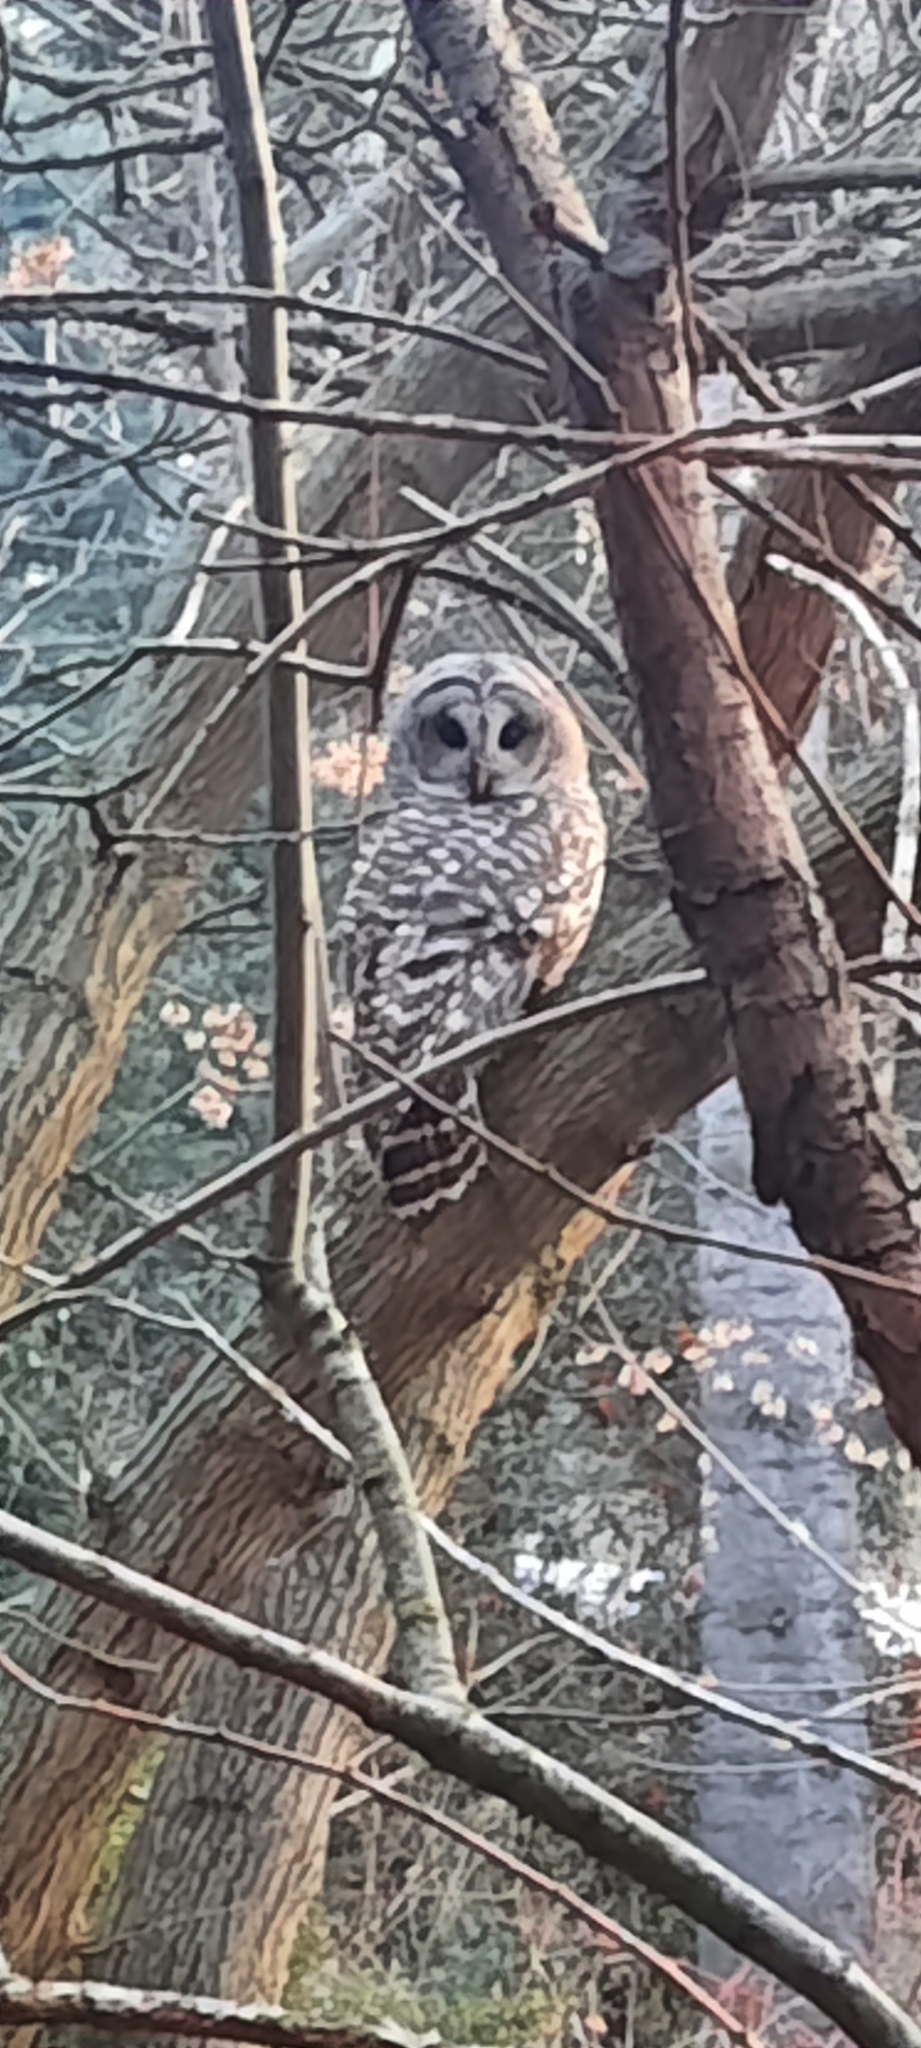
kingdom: Animalia
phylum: Chordata
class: Aves
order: Strigiformes
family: Strigidae
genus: Strix
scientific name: Strix varia
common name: Barred owl
